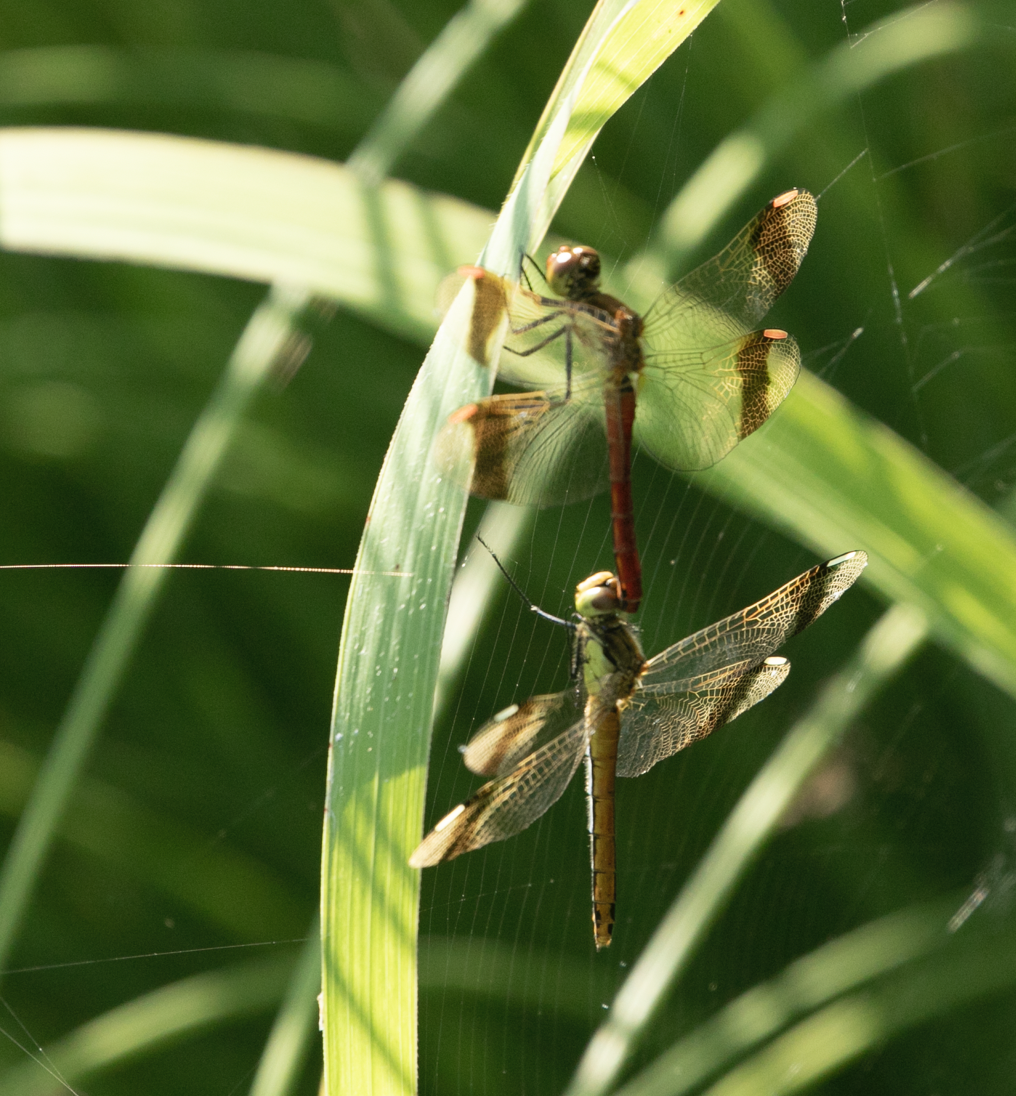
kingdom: Animalia
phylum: Arthropoda
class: Insecta
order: Odonata
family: Libellulidae
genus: Sympetrum
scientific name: Sympetrum pedemontanum
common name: Banded darter
